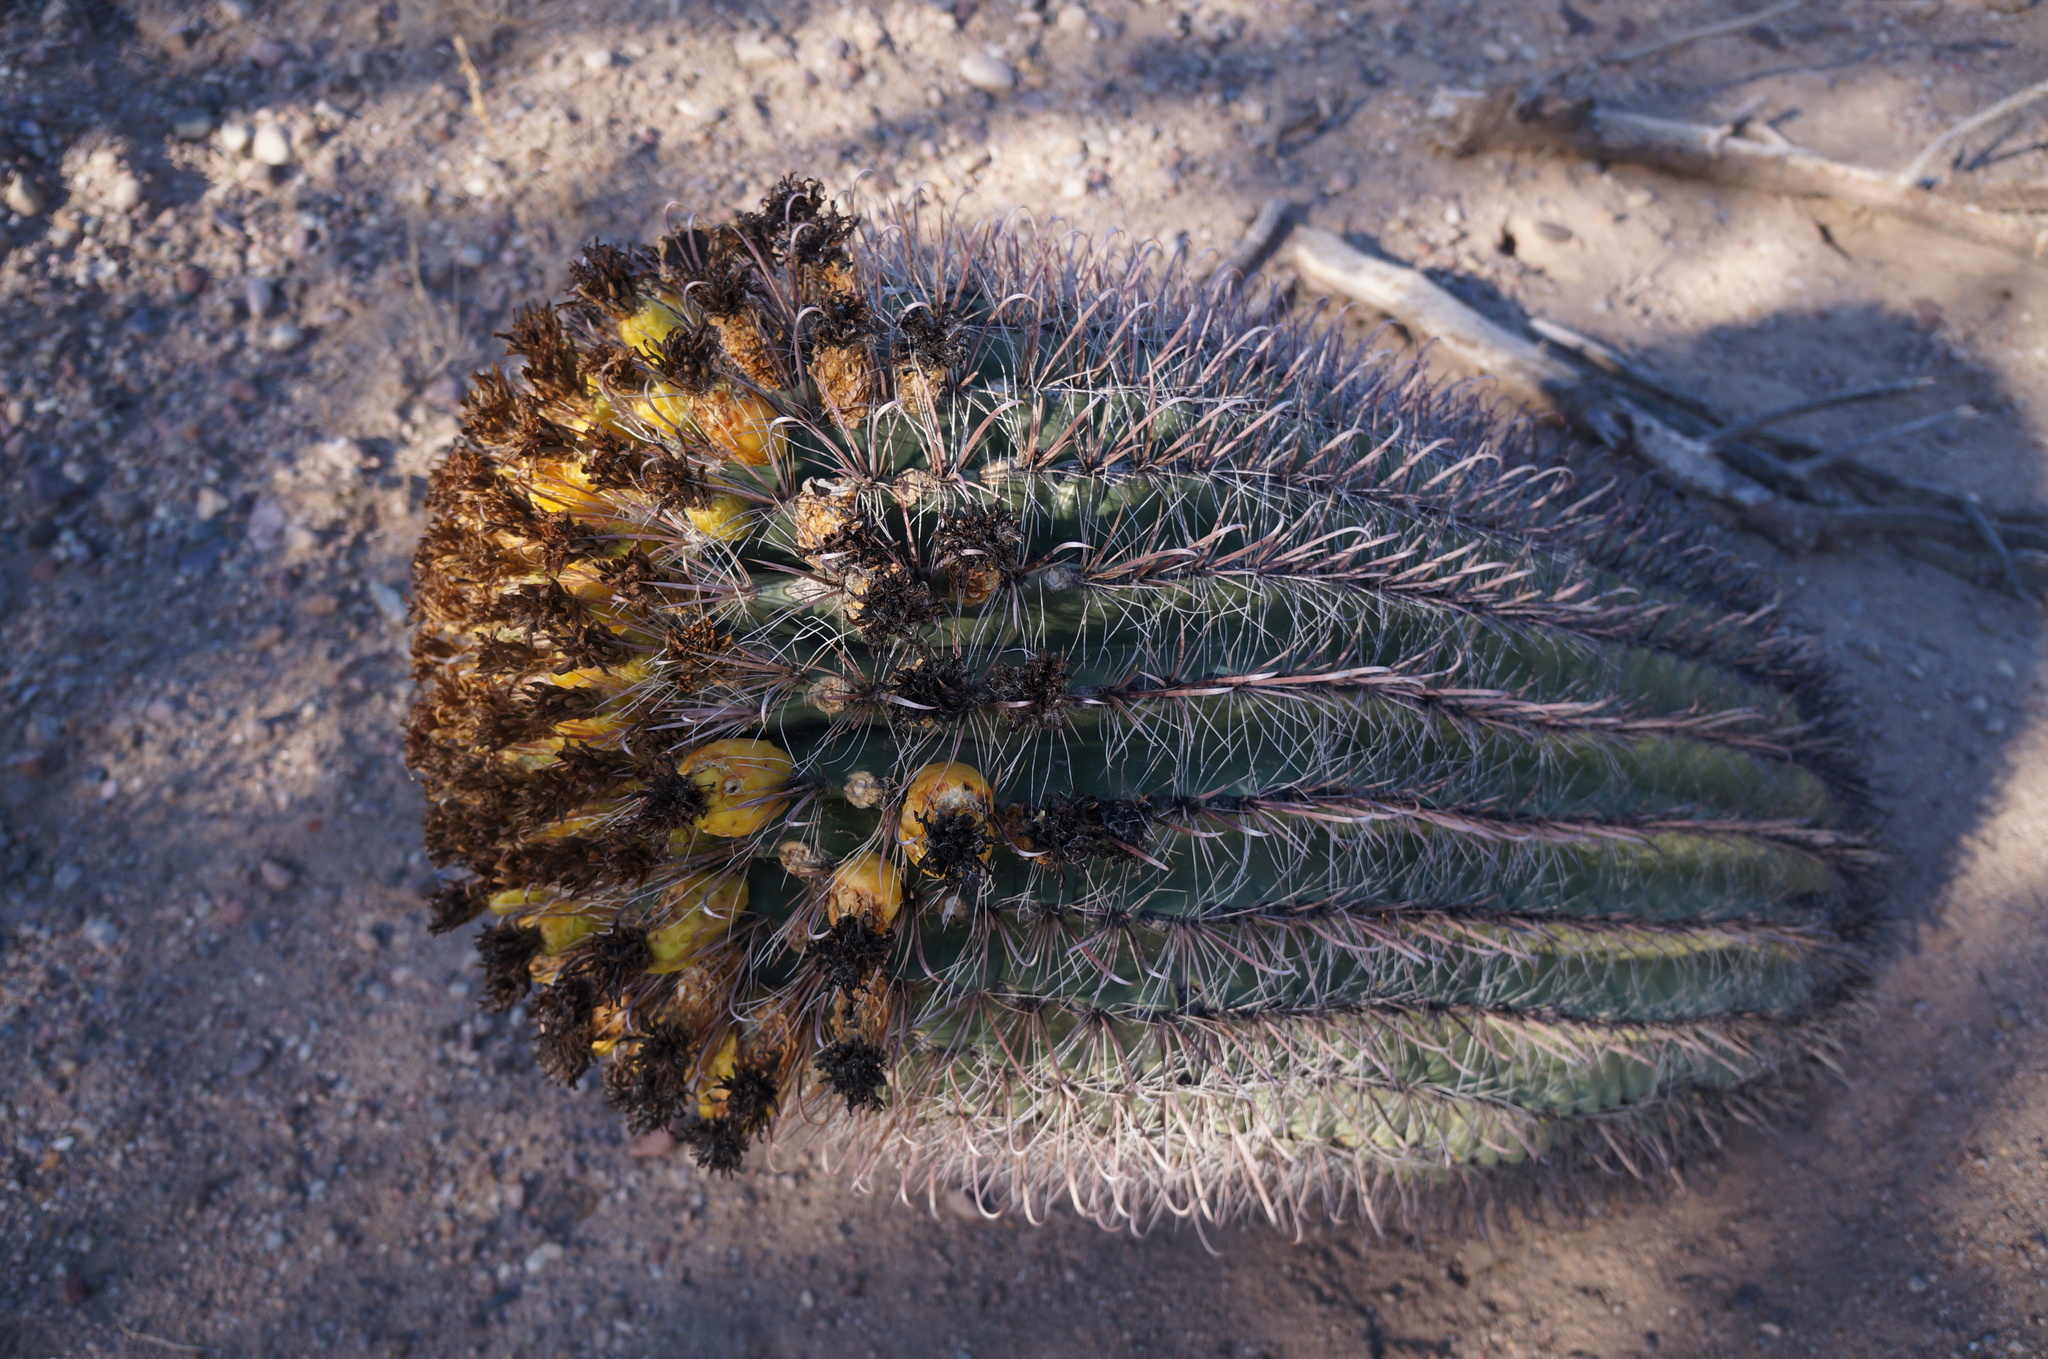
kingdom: Plantae
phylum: Tracheophyta
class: Magnoliopsida
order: Caryophyllales
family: Cactaceae
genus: Ferocactus
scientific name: Ferocactus wislizeni
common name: Candy barrel cactus
